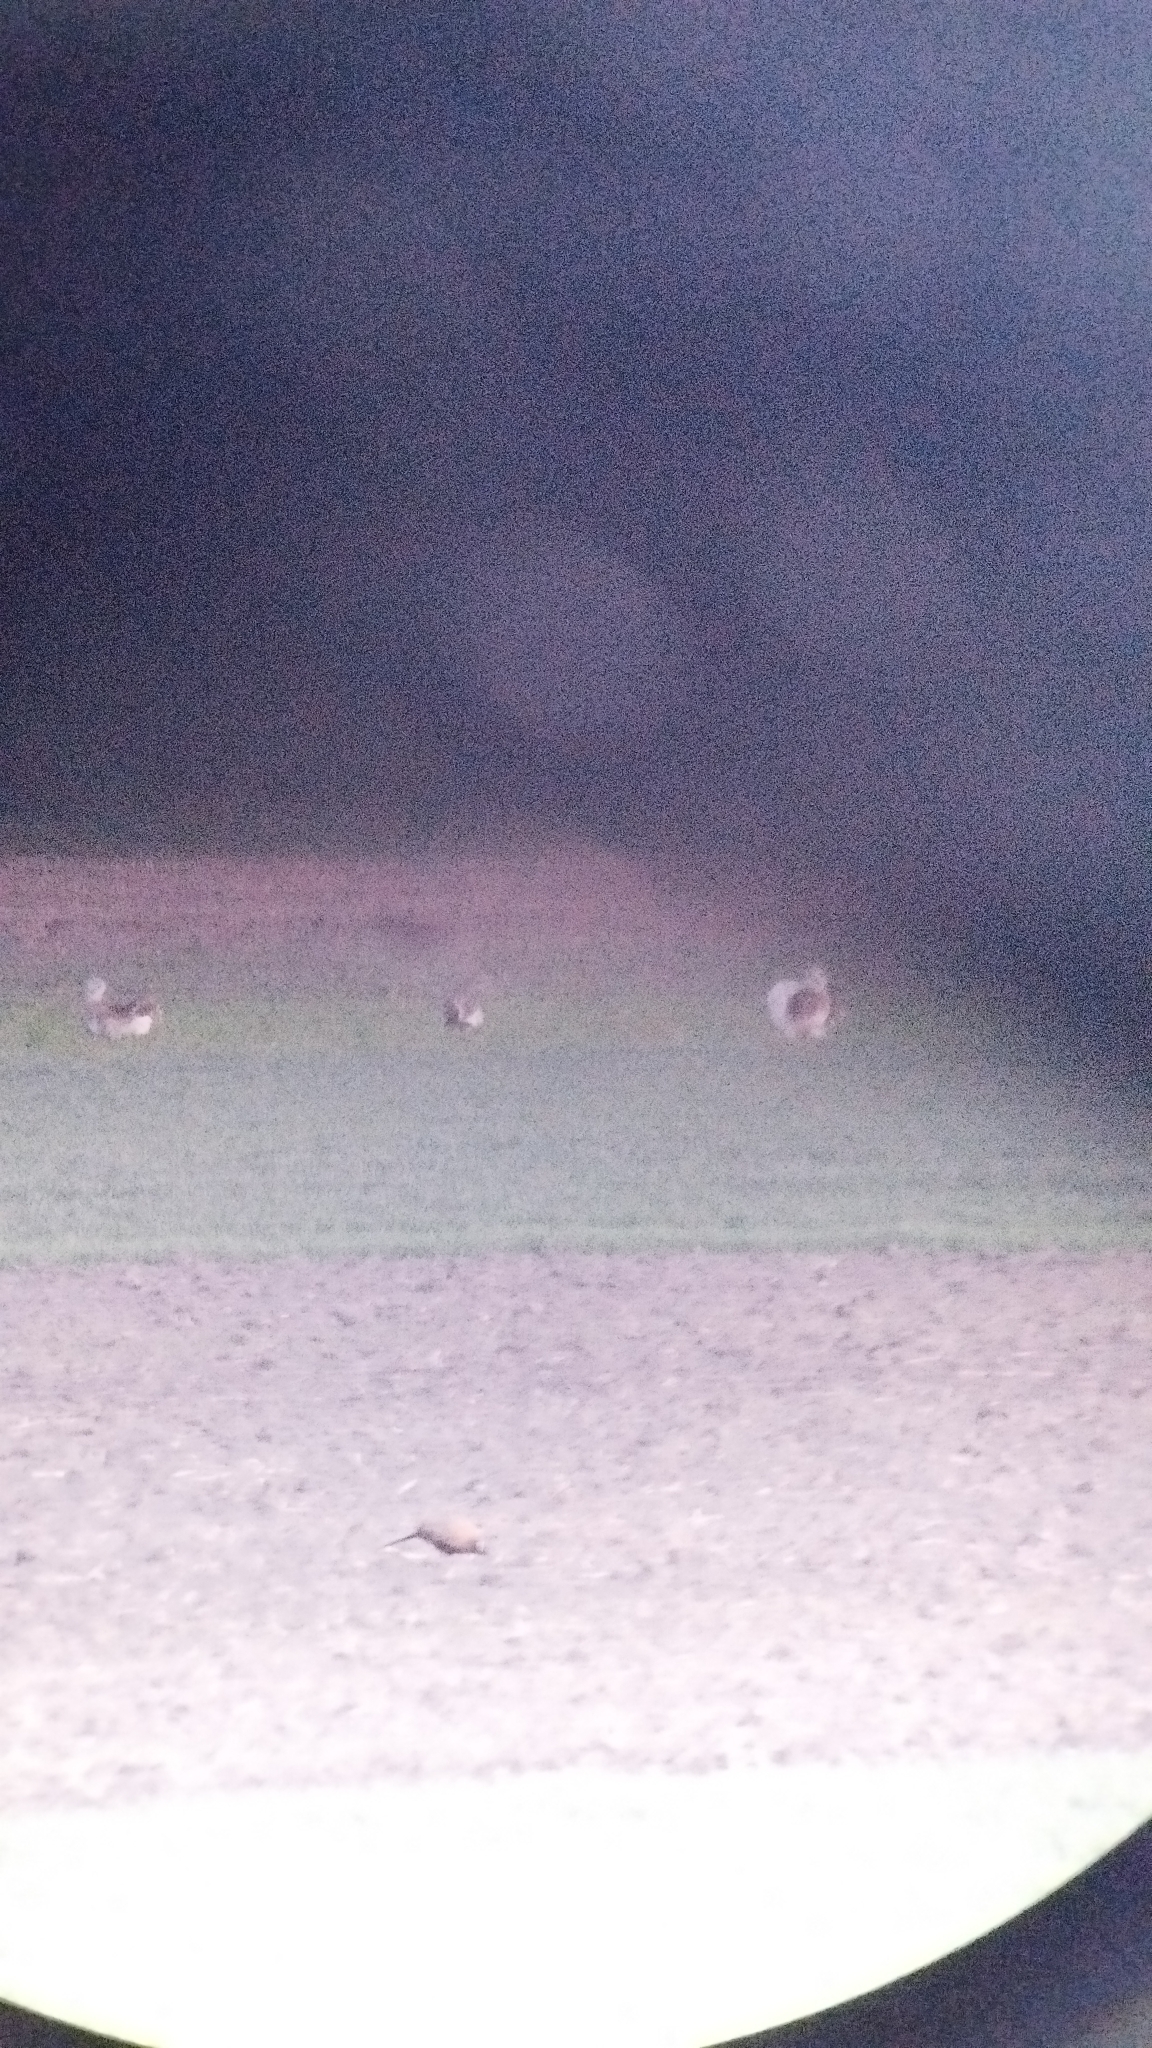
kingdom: Animalia
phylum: Chordata
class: Aves
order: Otidiformes
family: Otididae
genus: Otis
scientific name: Otis tarda
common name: Great bustard
